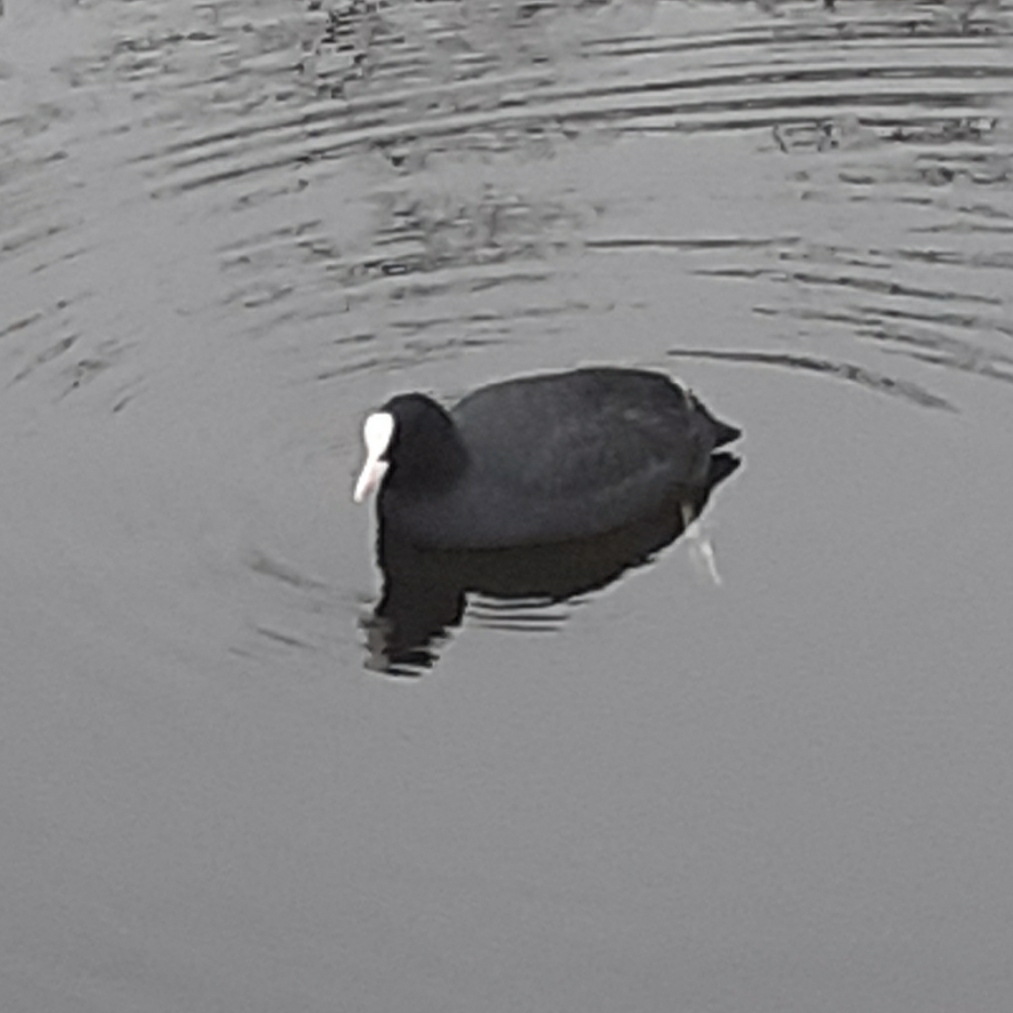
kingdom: Animalia
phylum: Chordata
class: Aves
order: Gruiformes
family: Rallidae
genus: Fulica
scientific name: Fulica atra
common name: Eurasian coot
